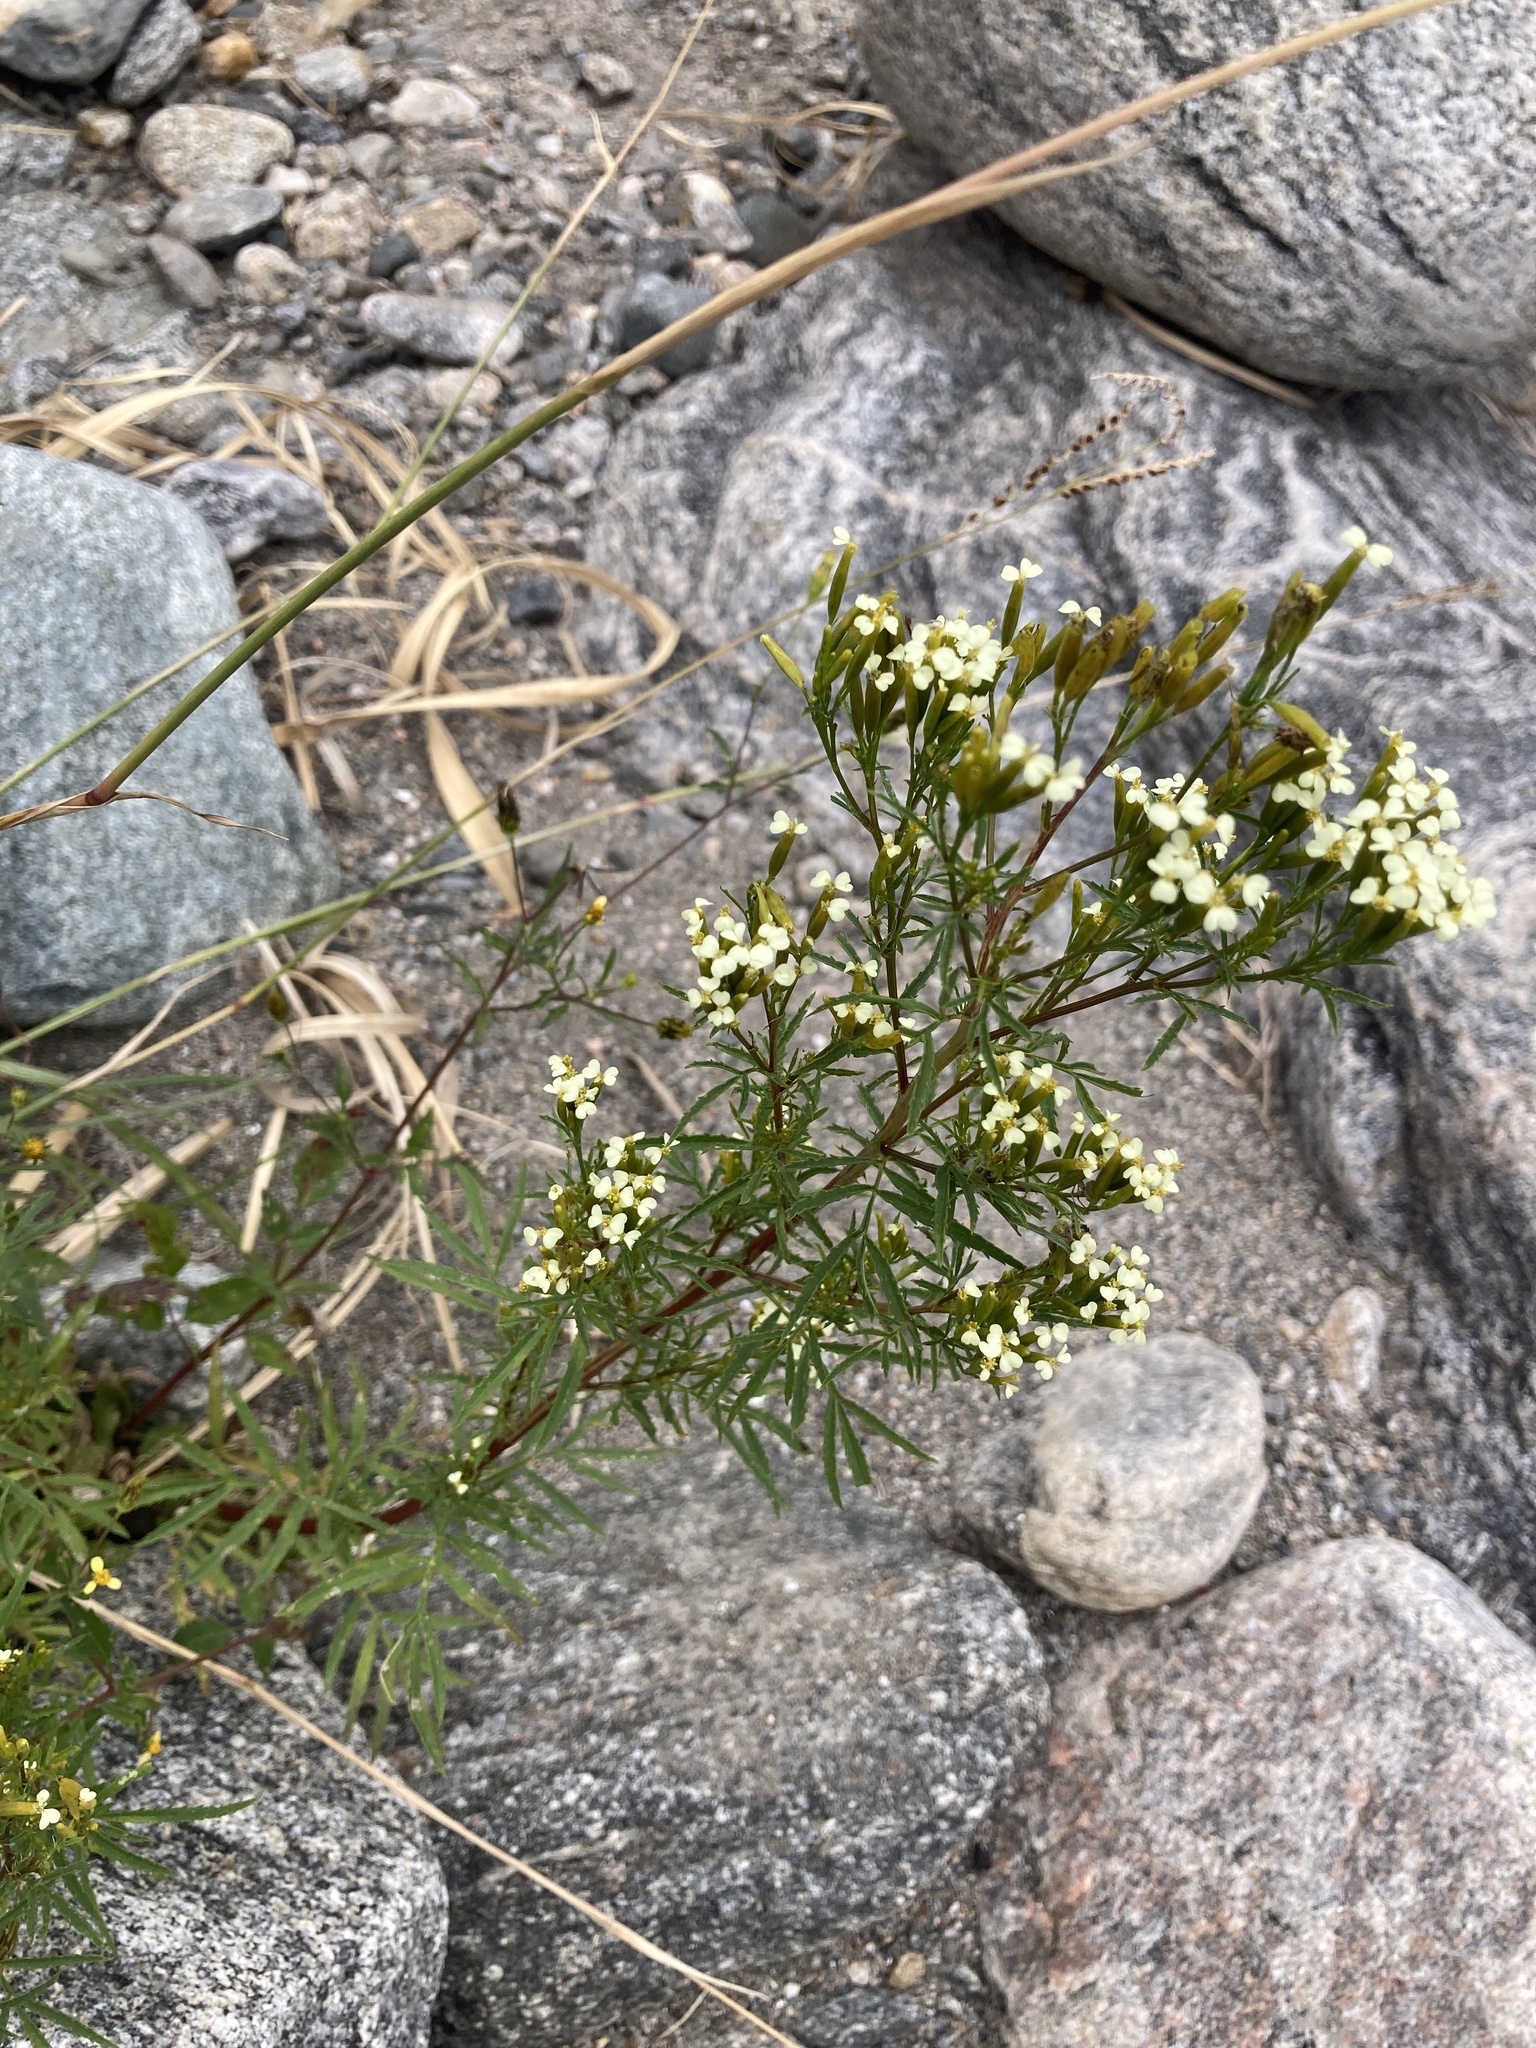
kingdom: Plantae
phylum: Tracheophyta
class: Magnoliopsida
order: Asterales
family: Asteraceae
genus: Tagetes
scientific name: Tagetes minuta
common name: Muster john henry
